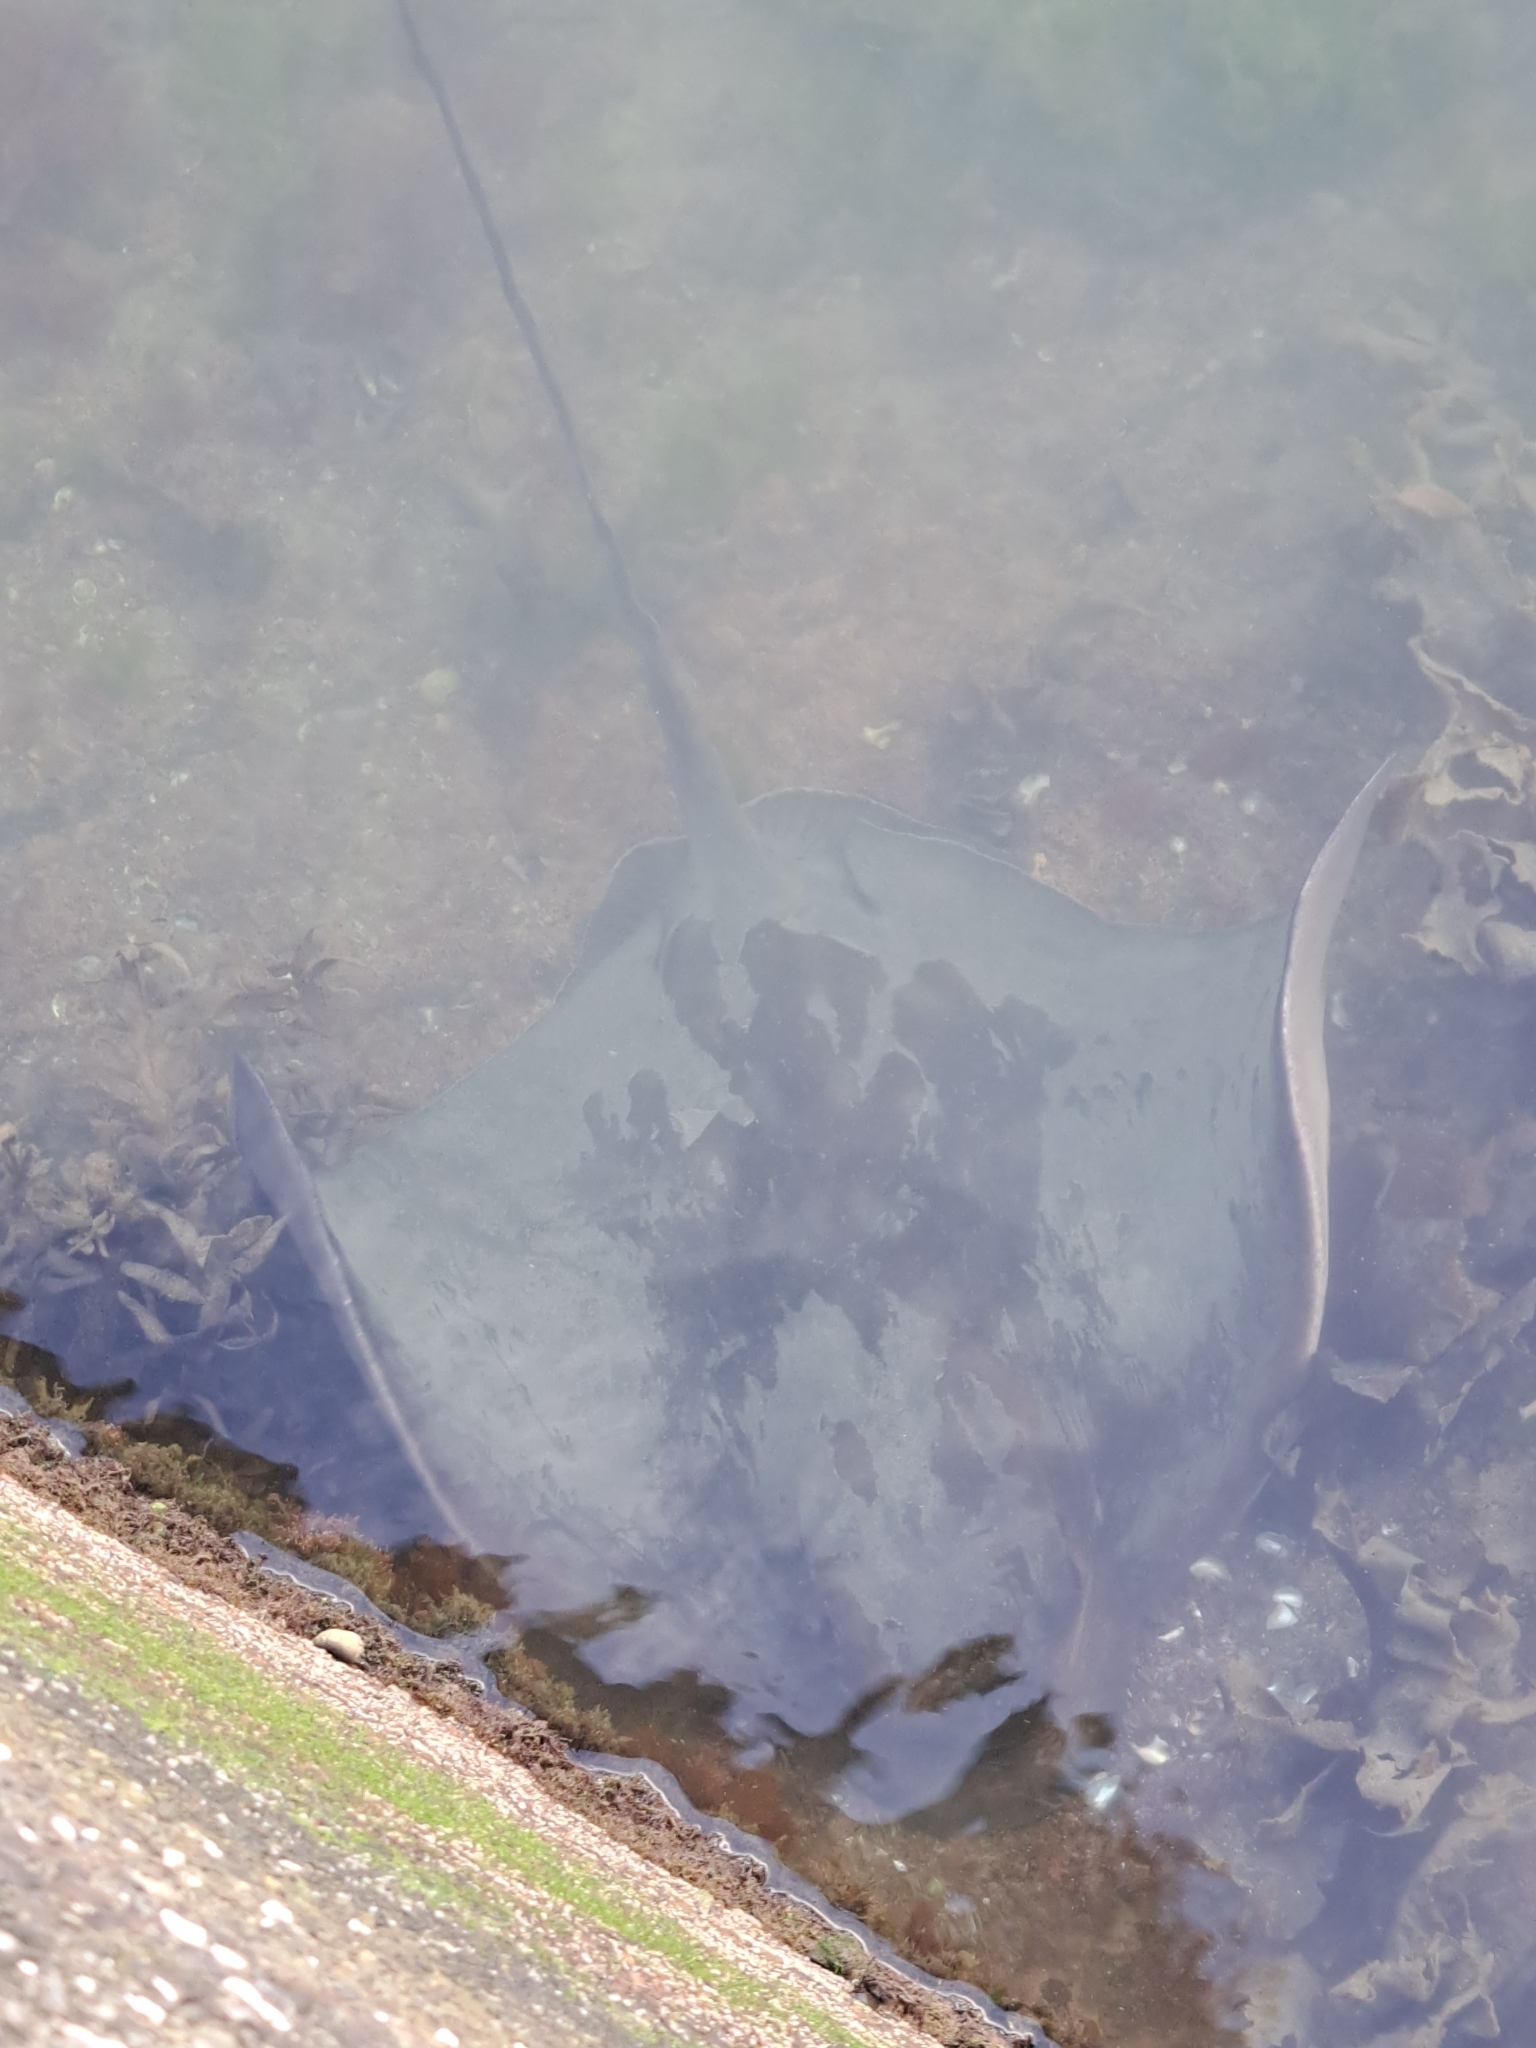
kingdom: Animalia
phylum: Chordata
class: Elasmobranchii
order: Myliobatiformes
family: Myliobatidae
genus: Myliobatis
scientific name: Myliobatis tenuicaudatus
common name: Eagle ray
